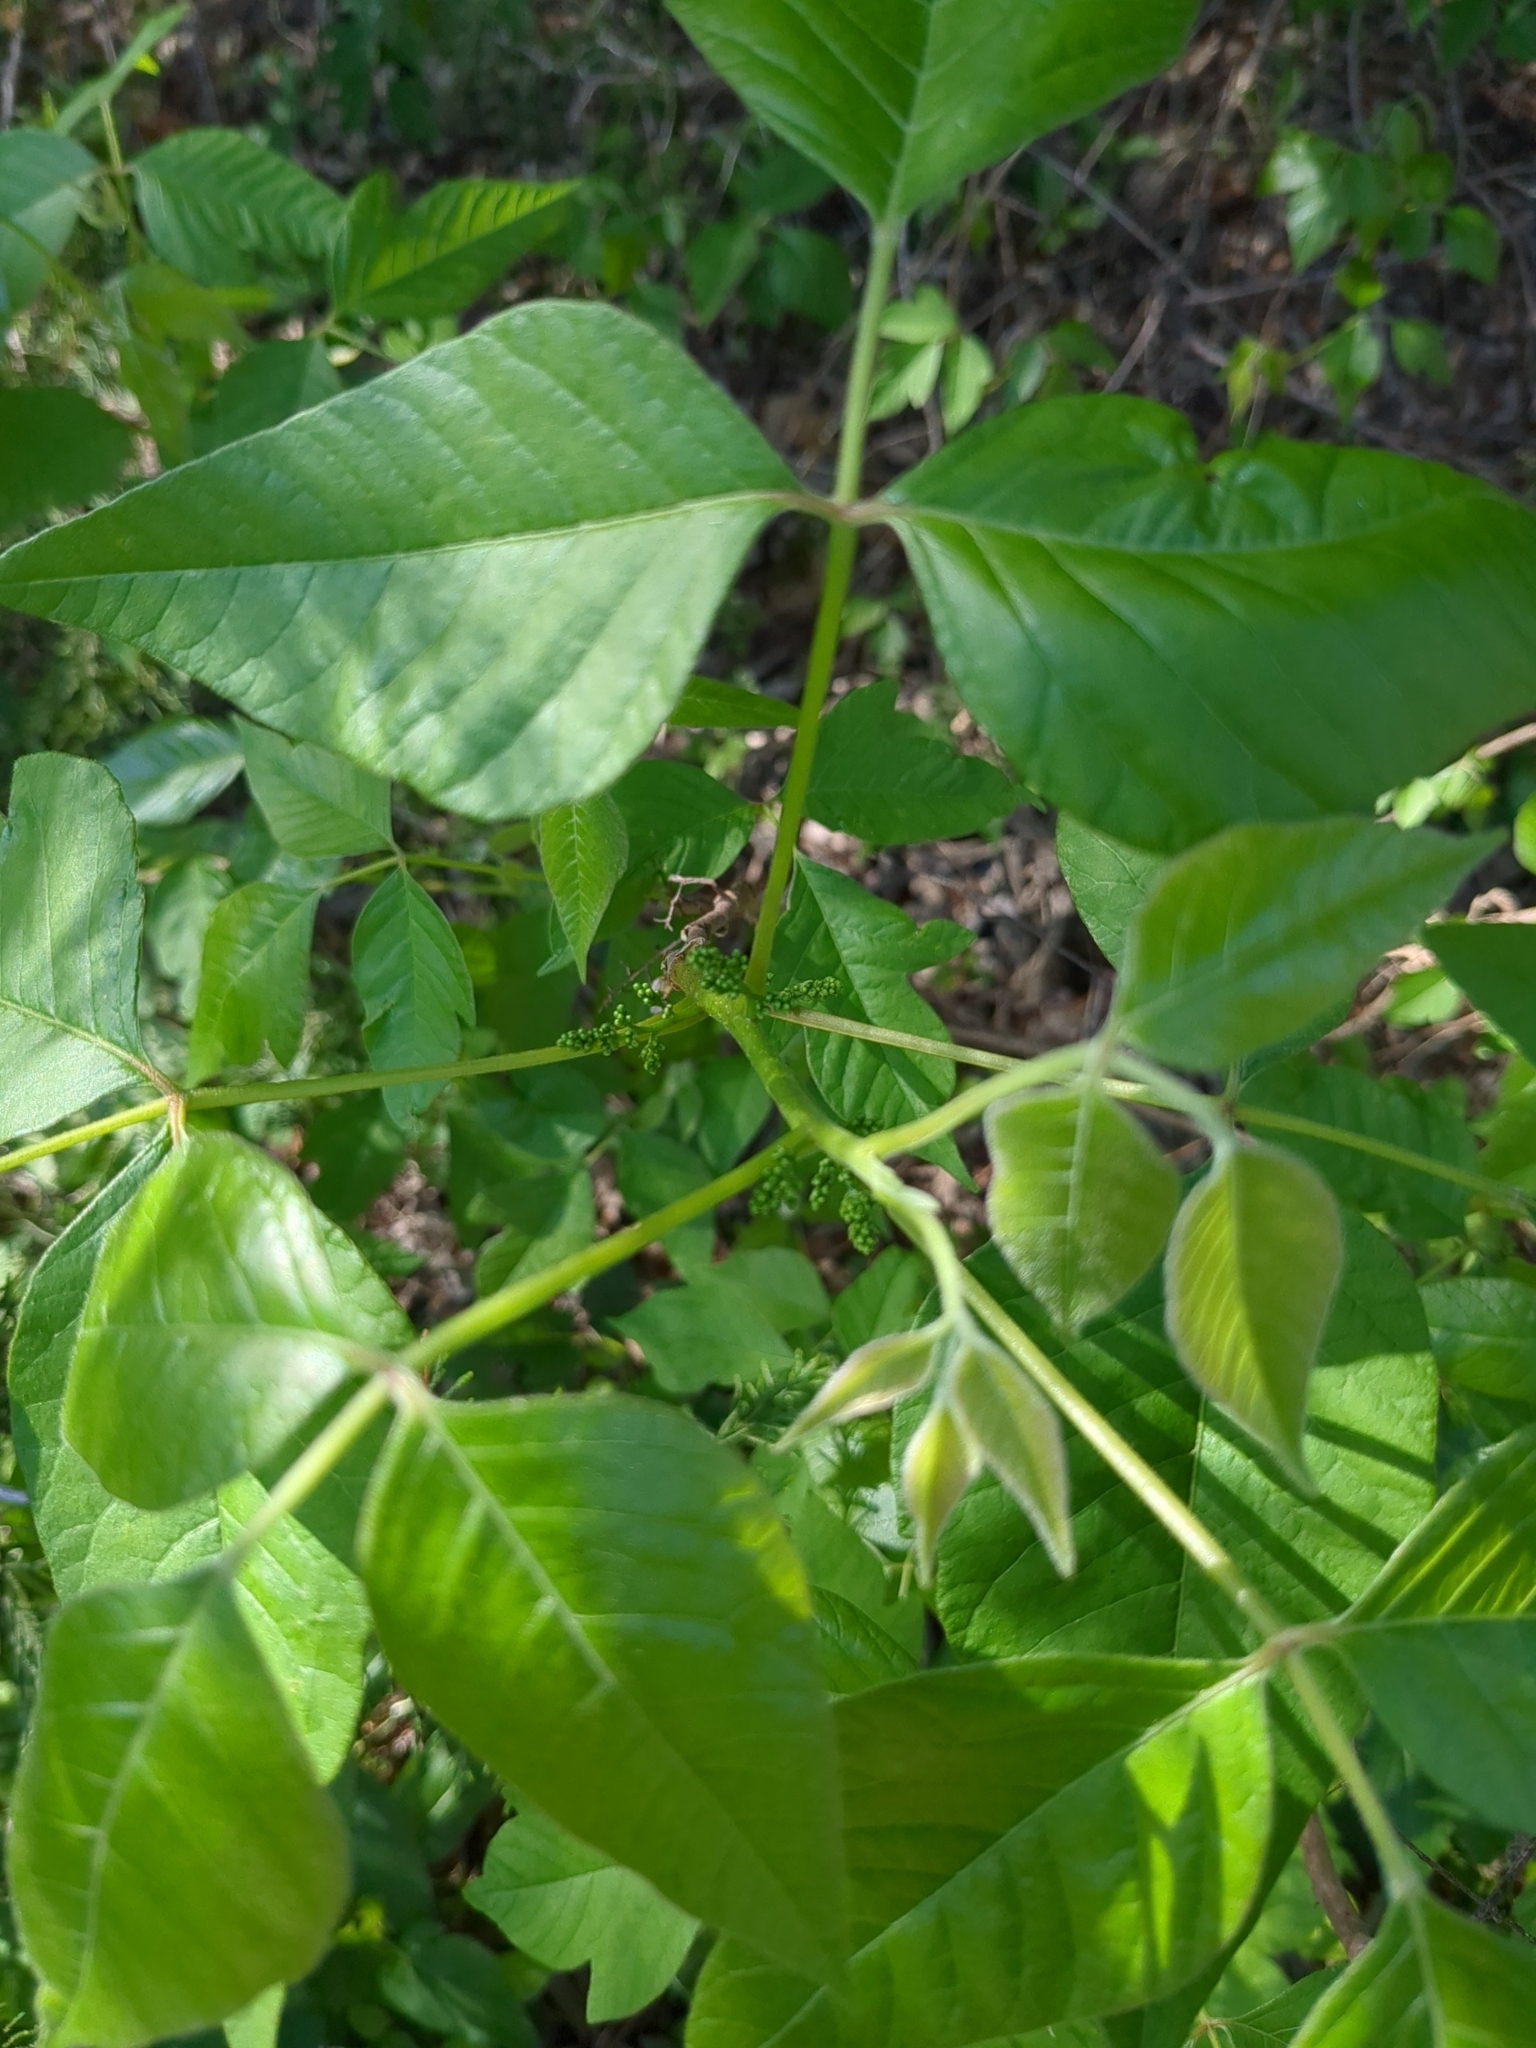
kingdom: Plantae
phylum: Tracheophyta
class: Magnoliopsida
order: Sapindales
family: Anacardiaceae
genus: Toxicodendron
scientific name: Toxicodendron radicans
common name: Poison ivy
